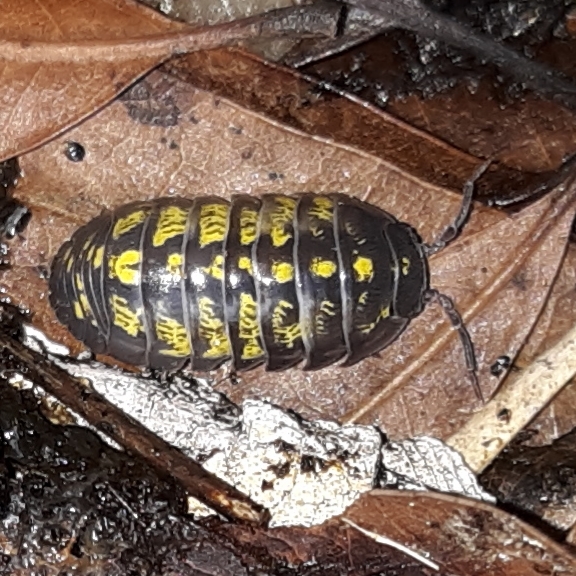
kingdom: Animalia
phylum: Arthropoda
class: Malacostraca
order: Isopoda
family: Armadillidiidae
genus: Armadillidium
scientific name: Armadillidium vulgare
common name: Common pill woodlouse
